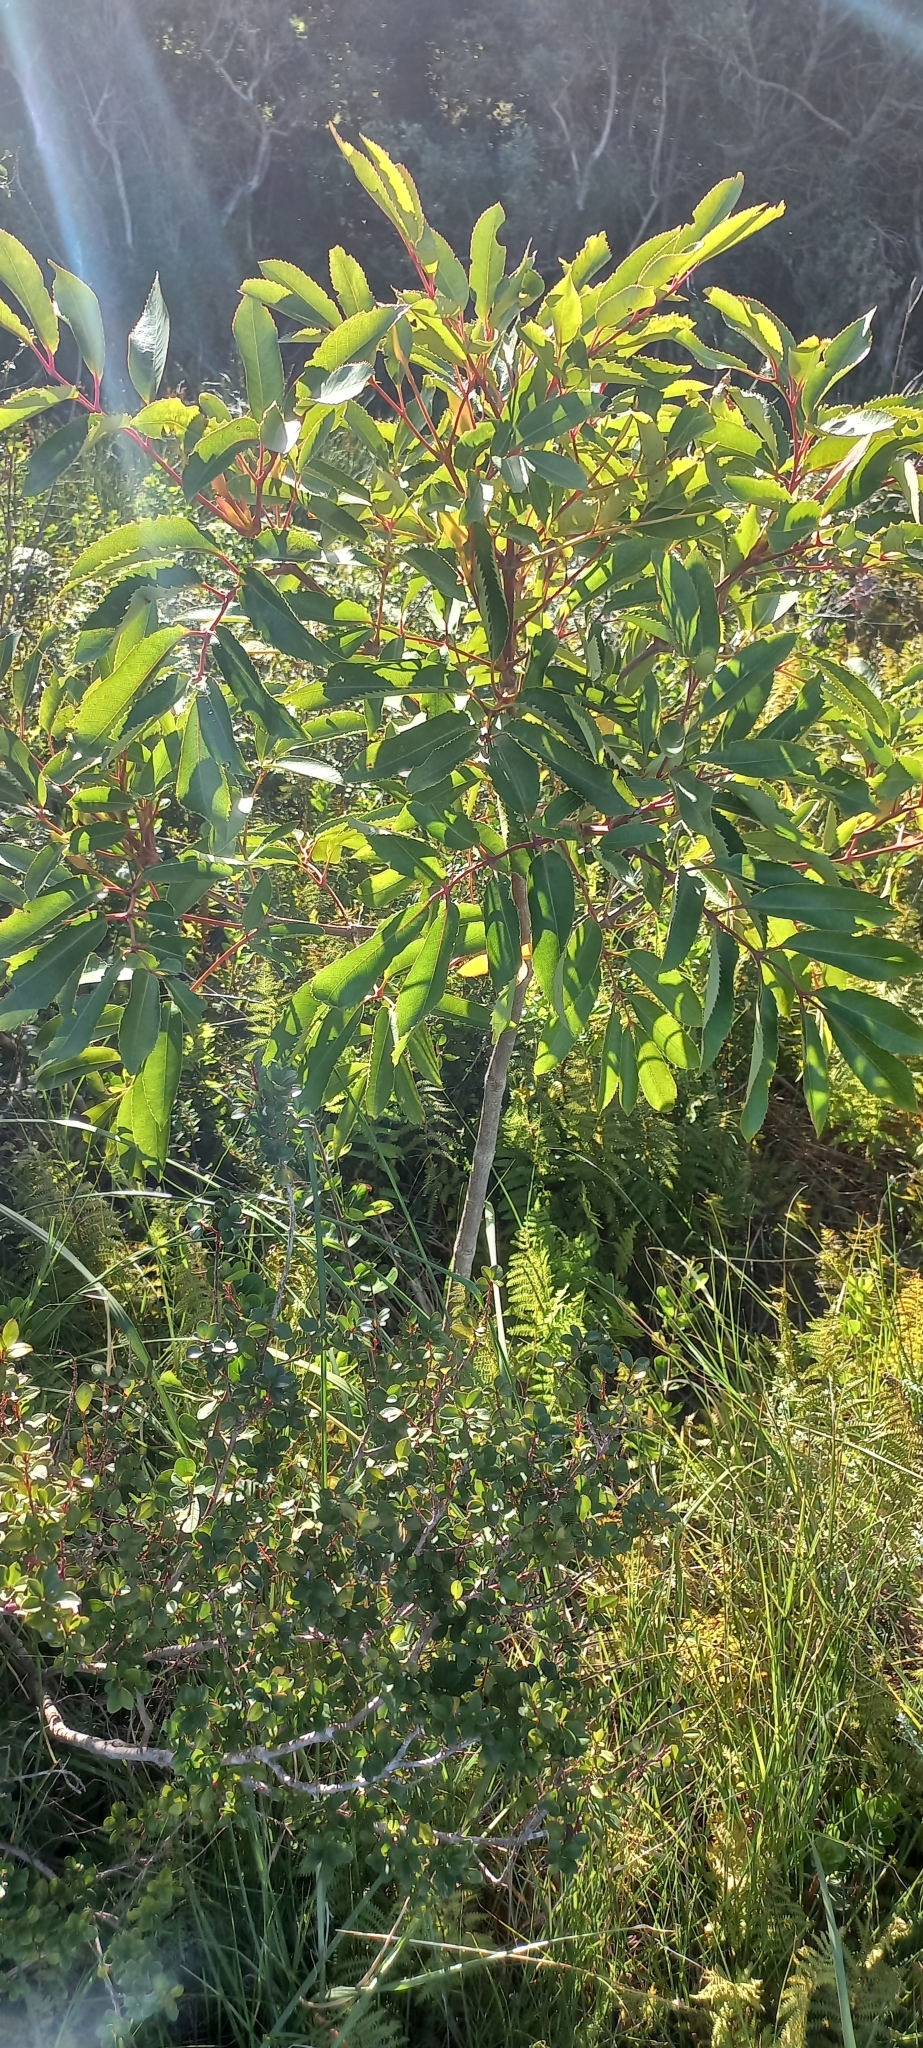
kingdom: Plantae
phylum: Tracheophyta
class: Magnoliopsida
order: Oxalidales
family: Cunoniaceae
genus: Cunonia
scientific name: Cunonia capensis
